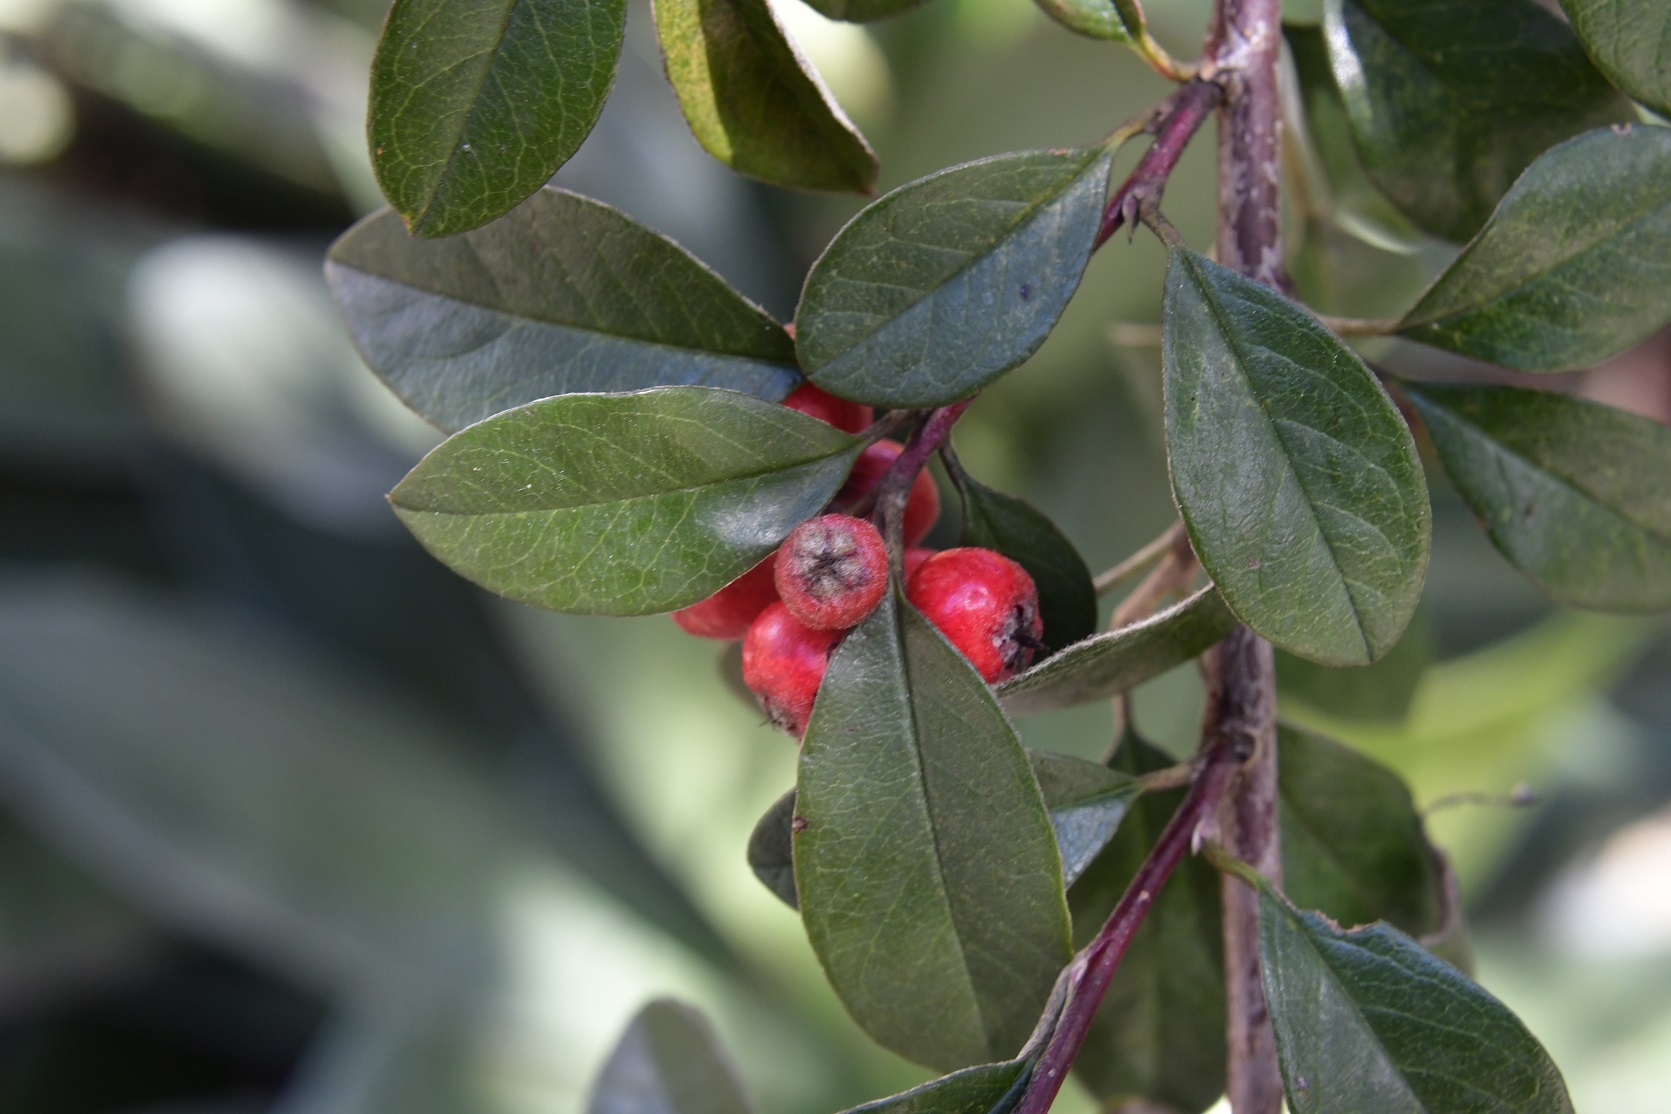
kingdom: Plantae
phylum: Tracheophyta
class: Magnoliopsida
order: Rosales
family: Rosaceae
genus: Cotoneaster
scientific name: Cotoneaster pannosus
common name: Silverleaf cotoneaster
